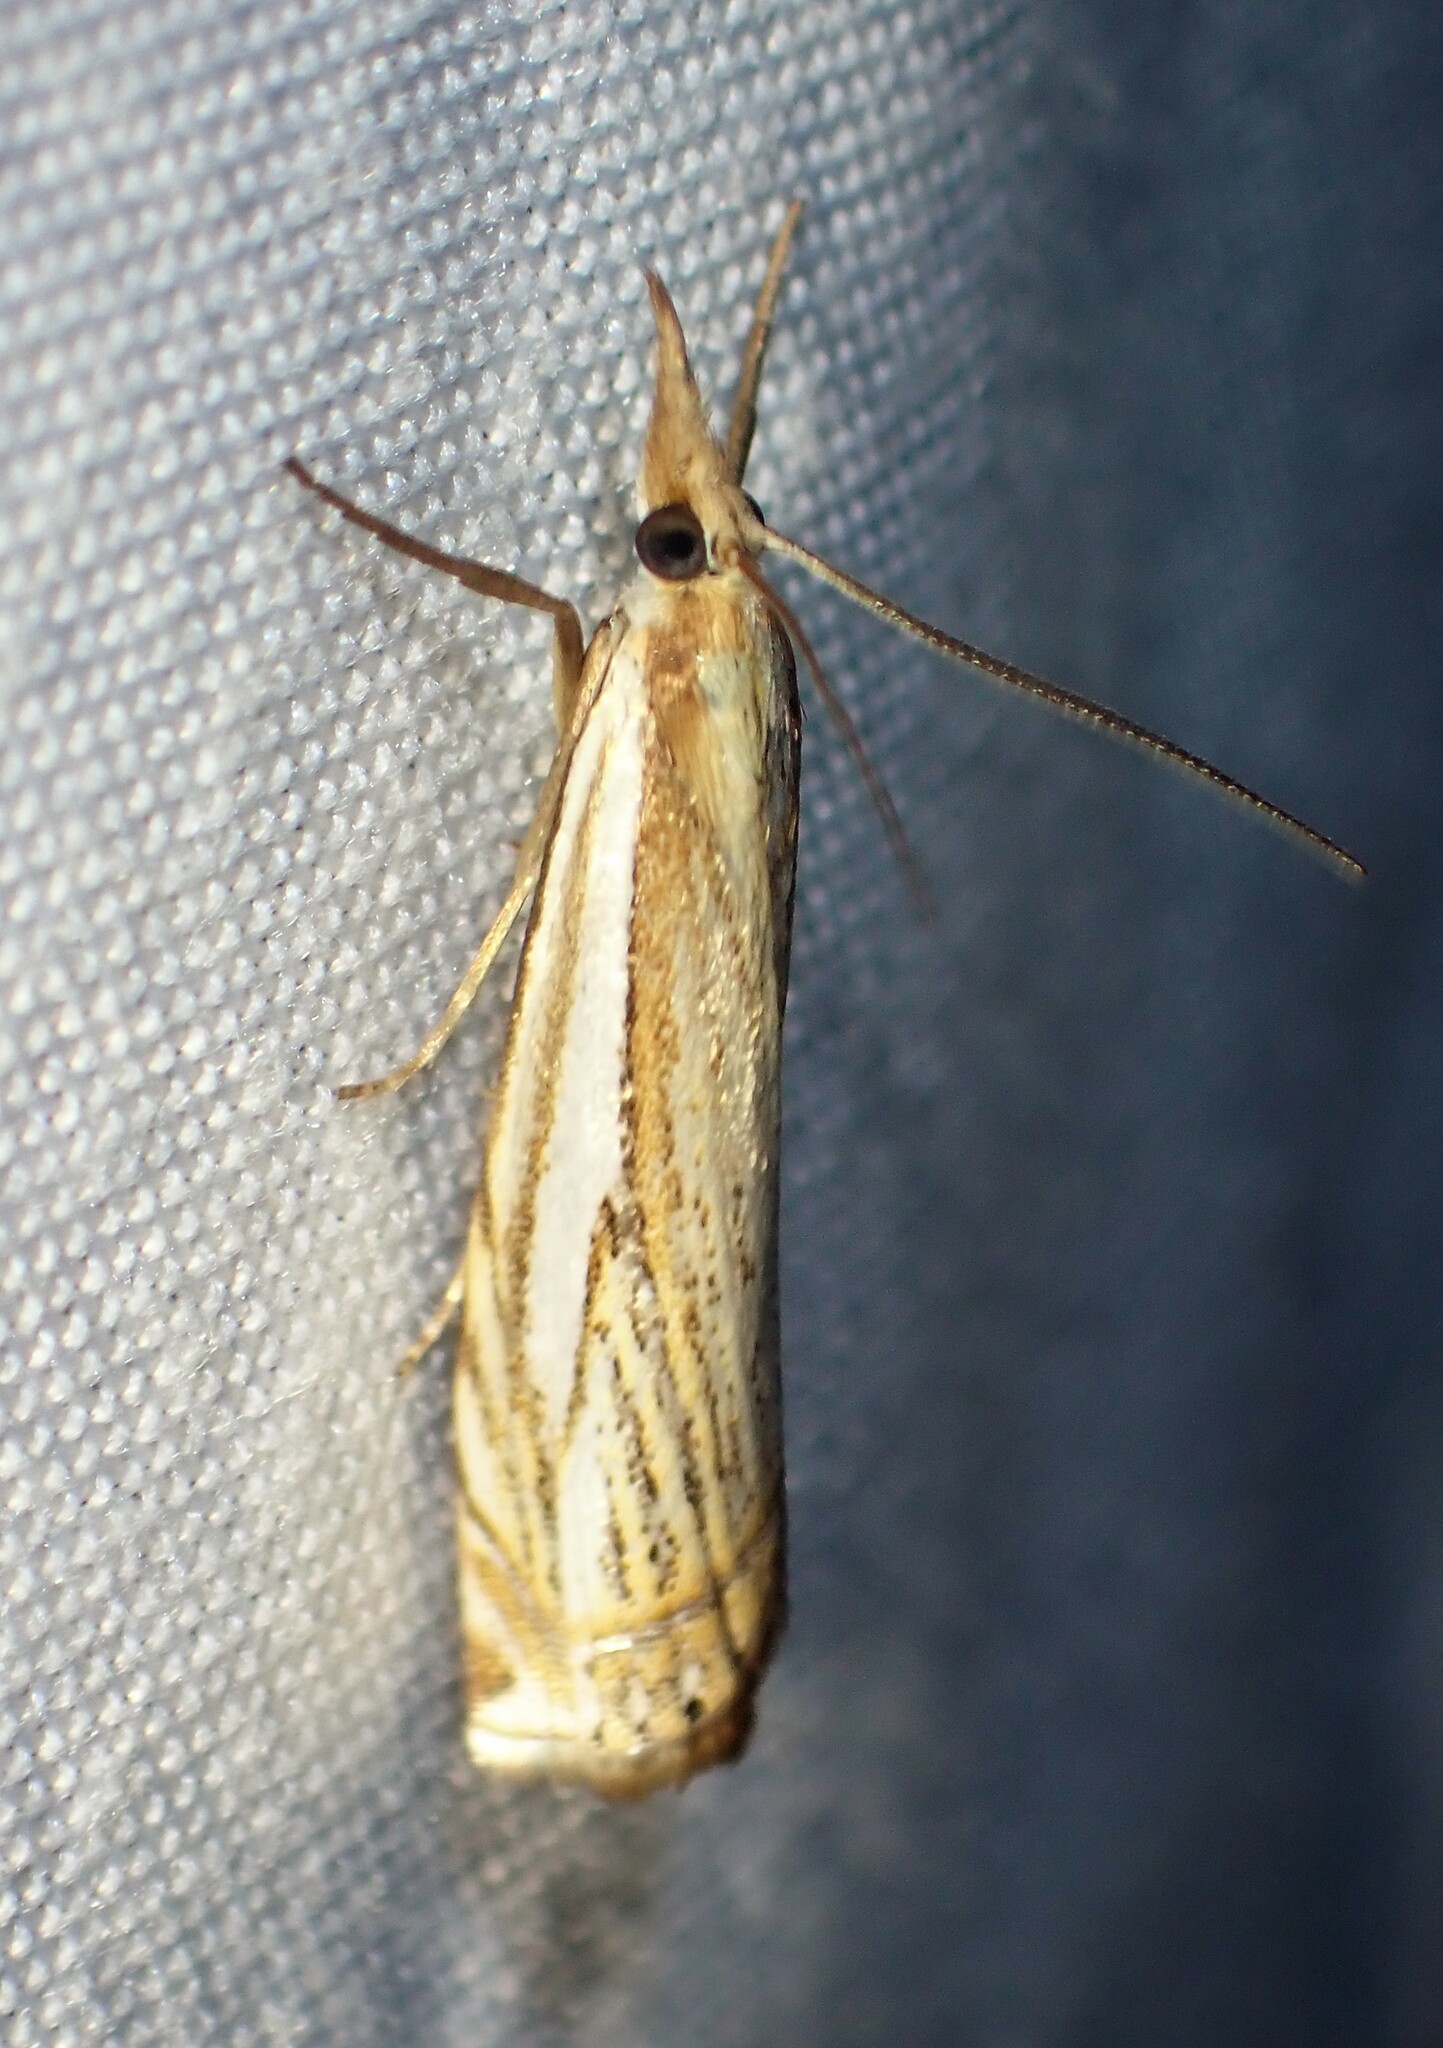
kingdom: Animalia
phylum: Arthropoda
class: Insecta
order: Lepidoptera
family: Crambidae
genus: Crambus
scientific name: Crambus saltuellus
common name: Pasture grass-veneer
